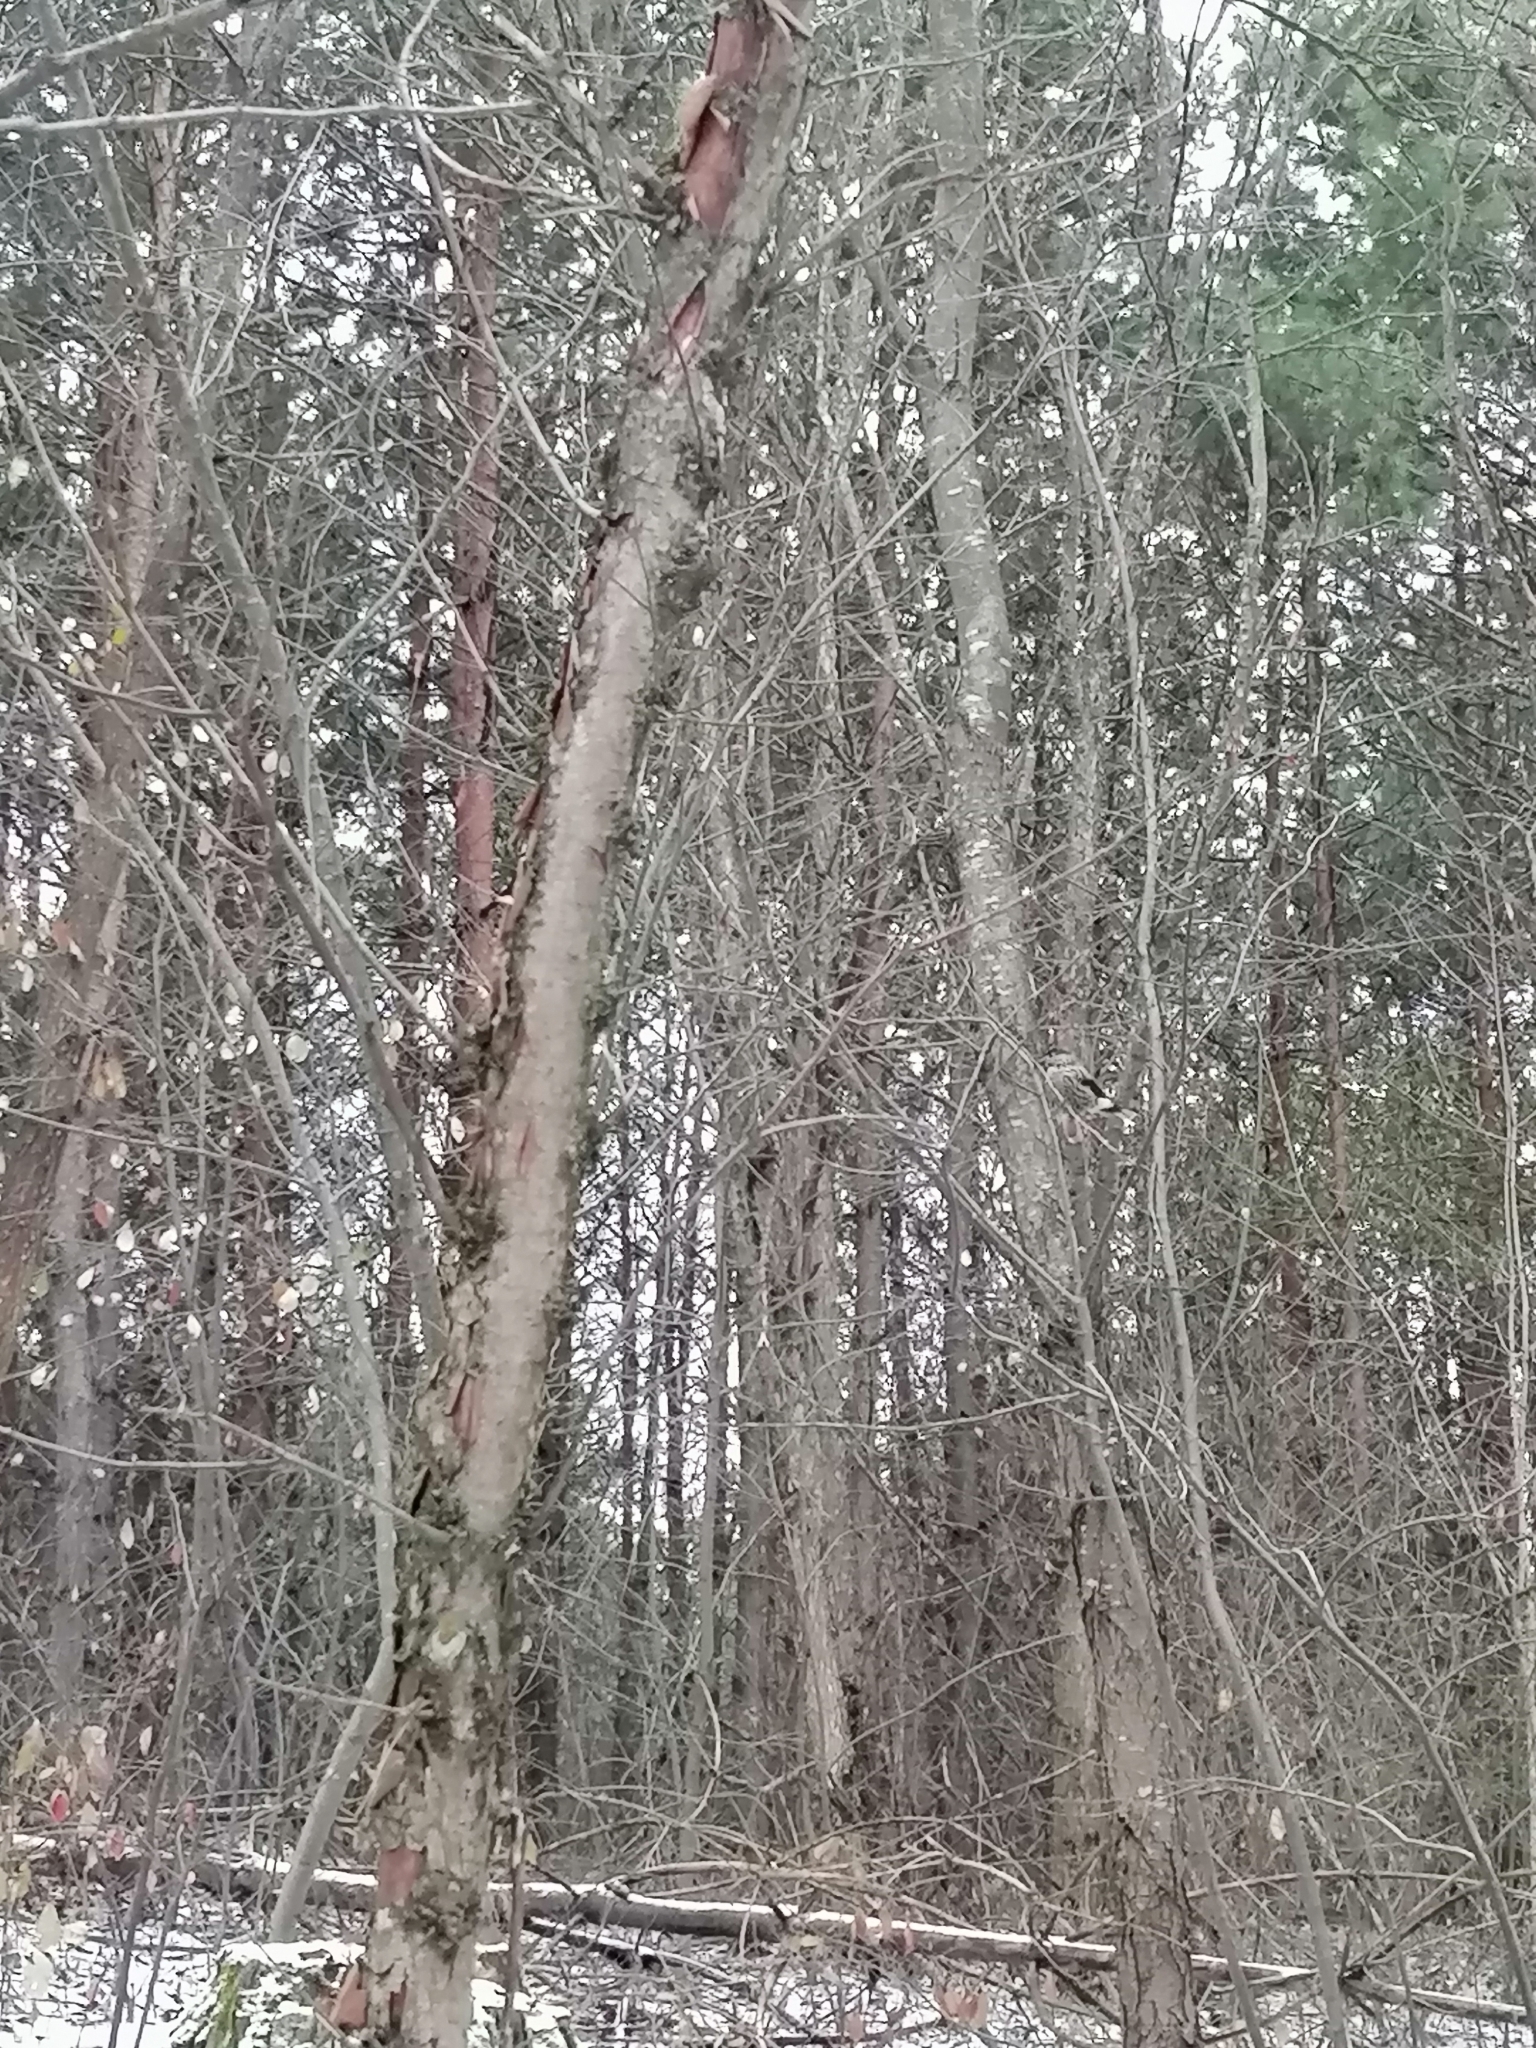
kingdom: Animalia
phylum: Chordata
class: Aves
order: Passeriformes
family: Corvidae
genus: Nucifraga
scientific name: Nucifraga caryocatactes
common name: Spotted nutcracker
